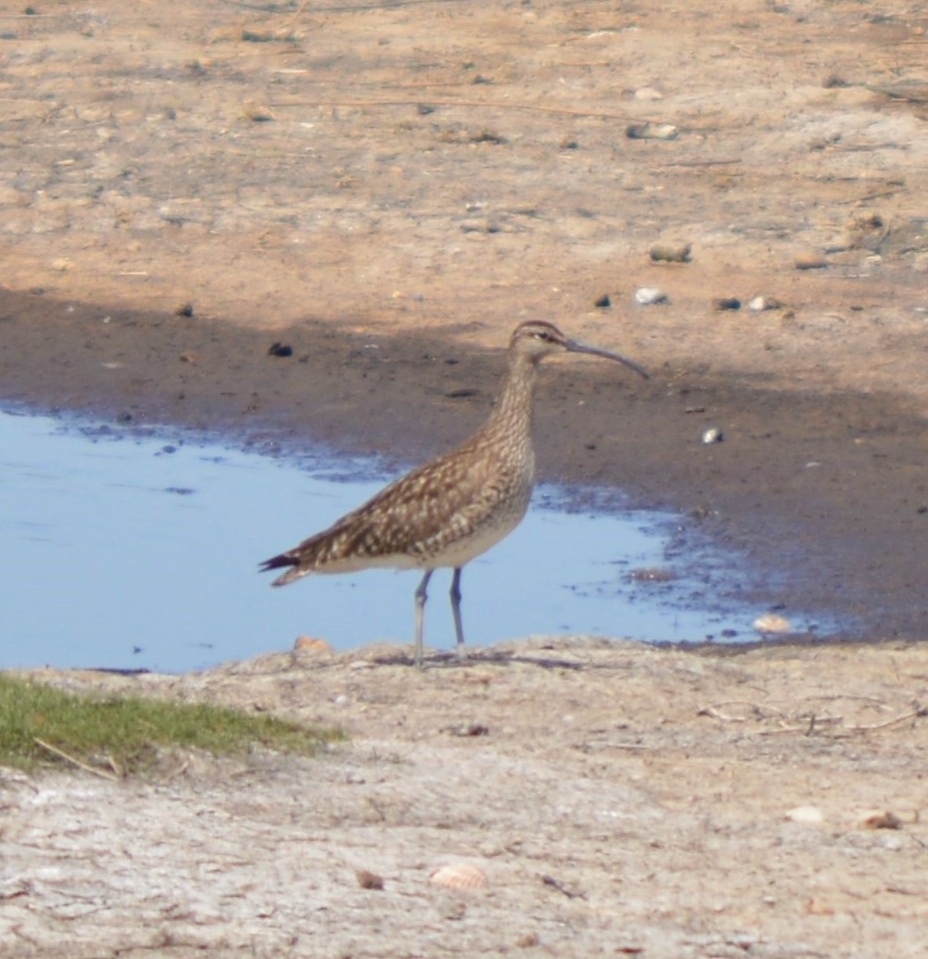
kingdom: Animalia
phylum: Chordata
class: Aves
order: Charadriiformes
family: Scolopacidae
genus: Numenius
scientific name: Numenius phaeopus
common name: Whimbrel
